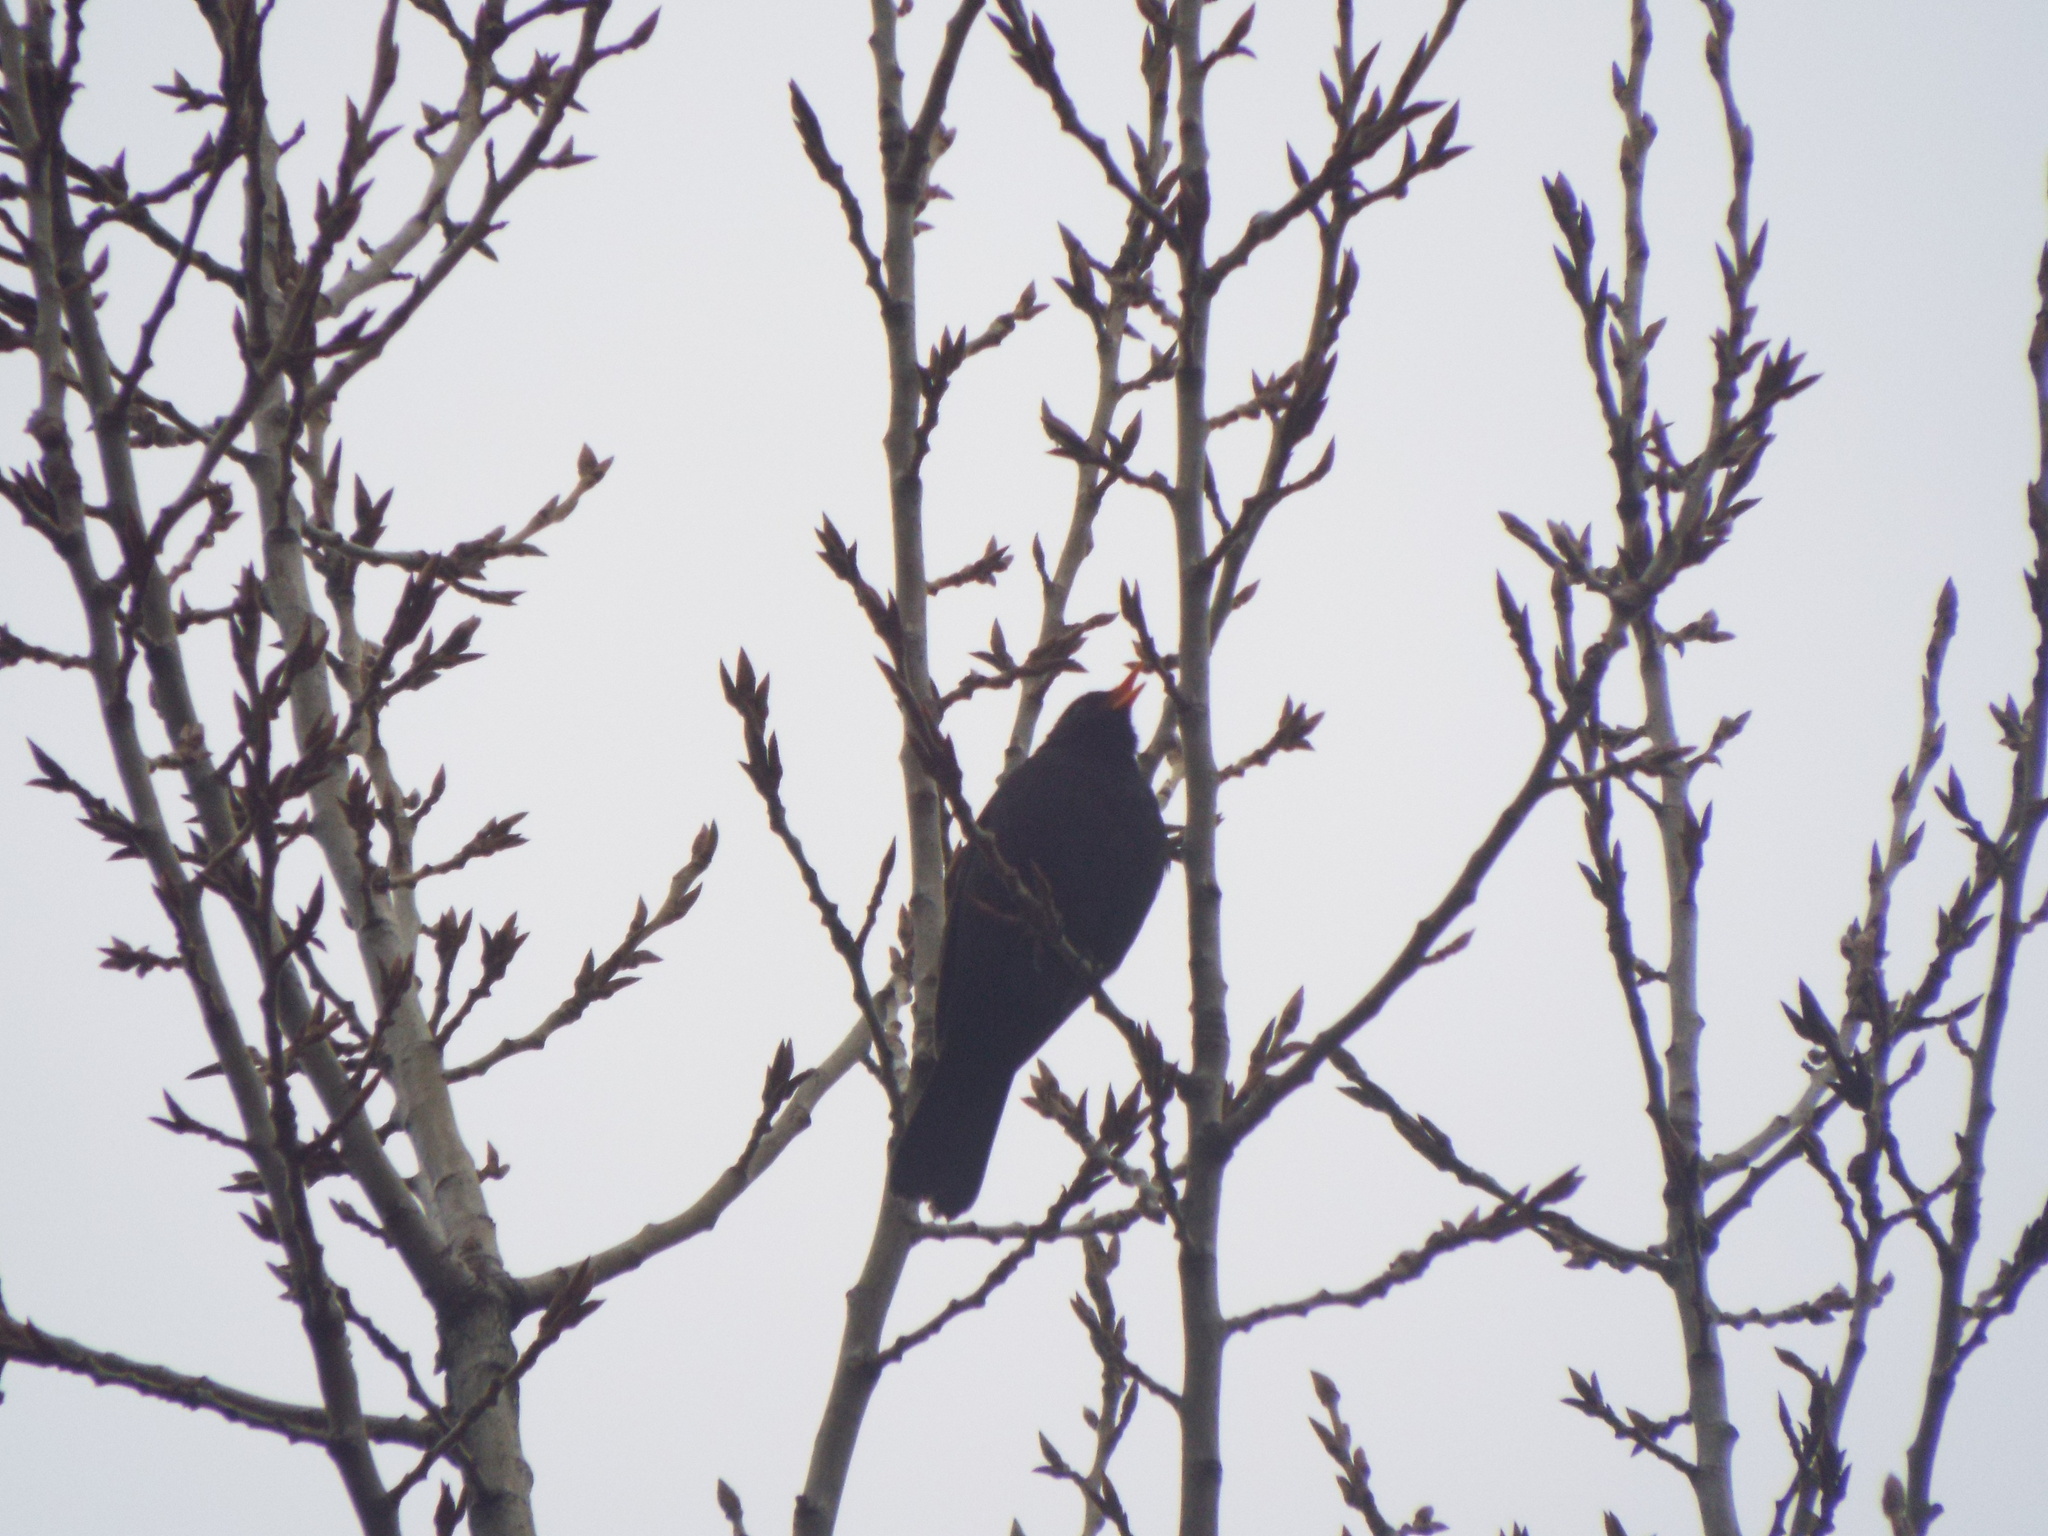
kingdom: Animalia
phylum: Chordata
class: Aves
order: Passeriformes
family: Turdidae
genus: Turdus
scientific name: Turdus merula
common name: Common blackbird
